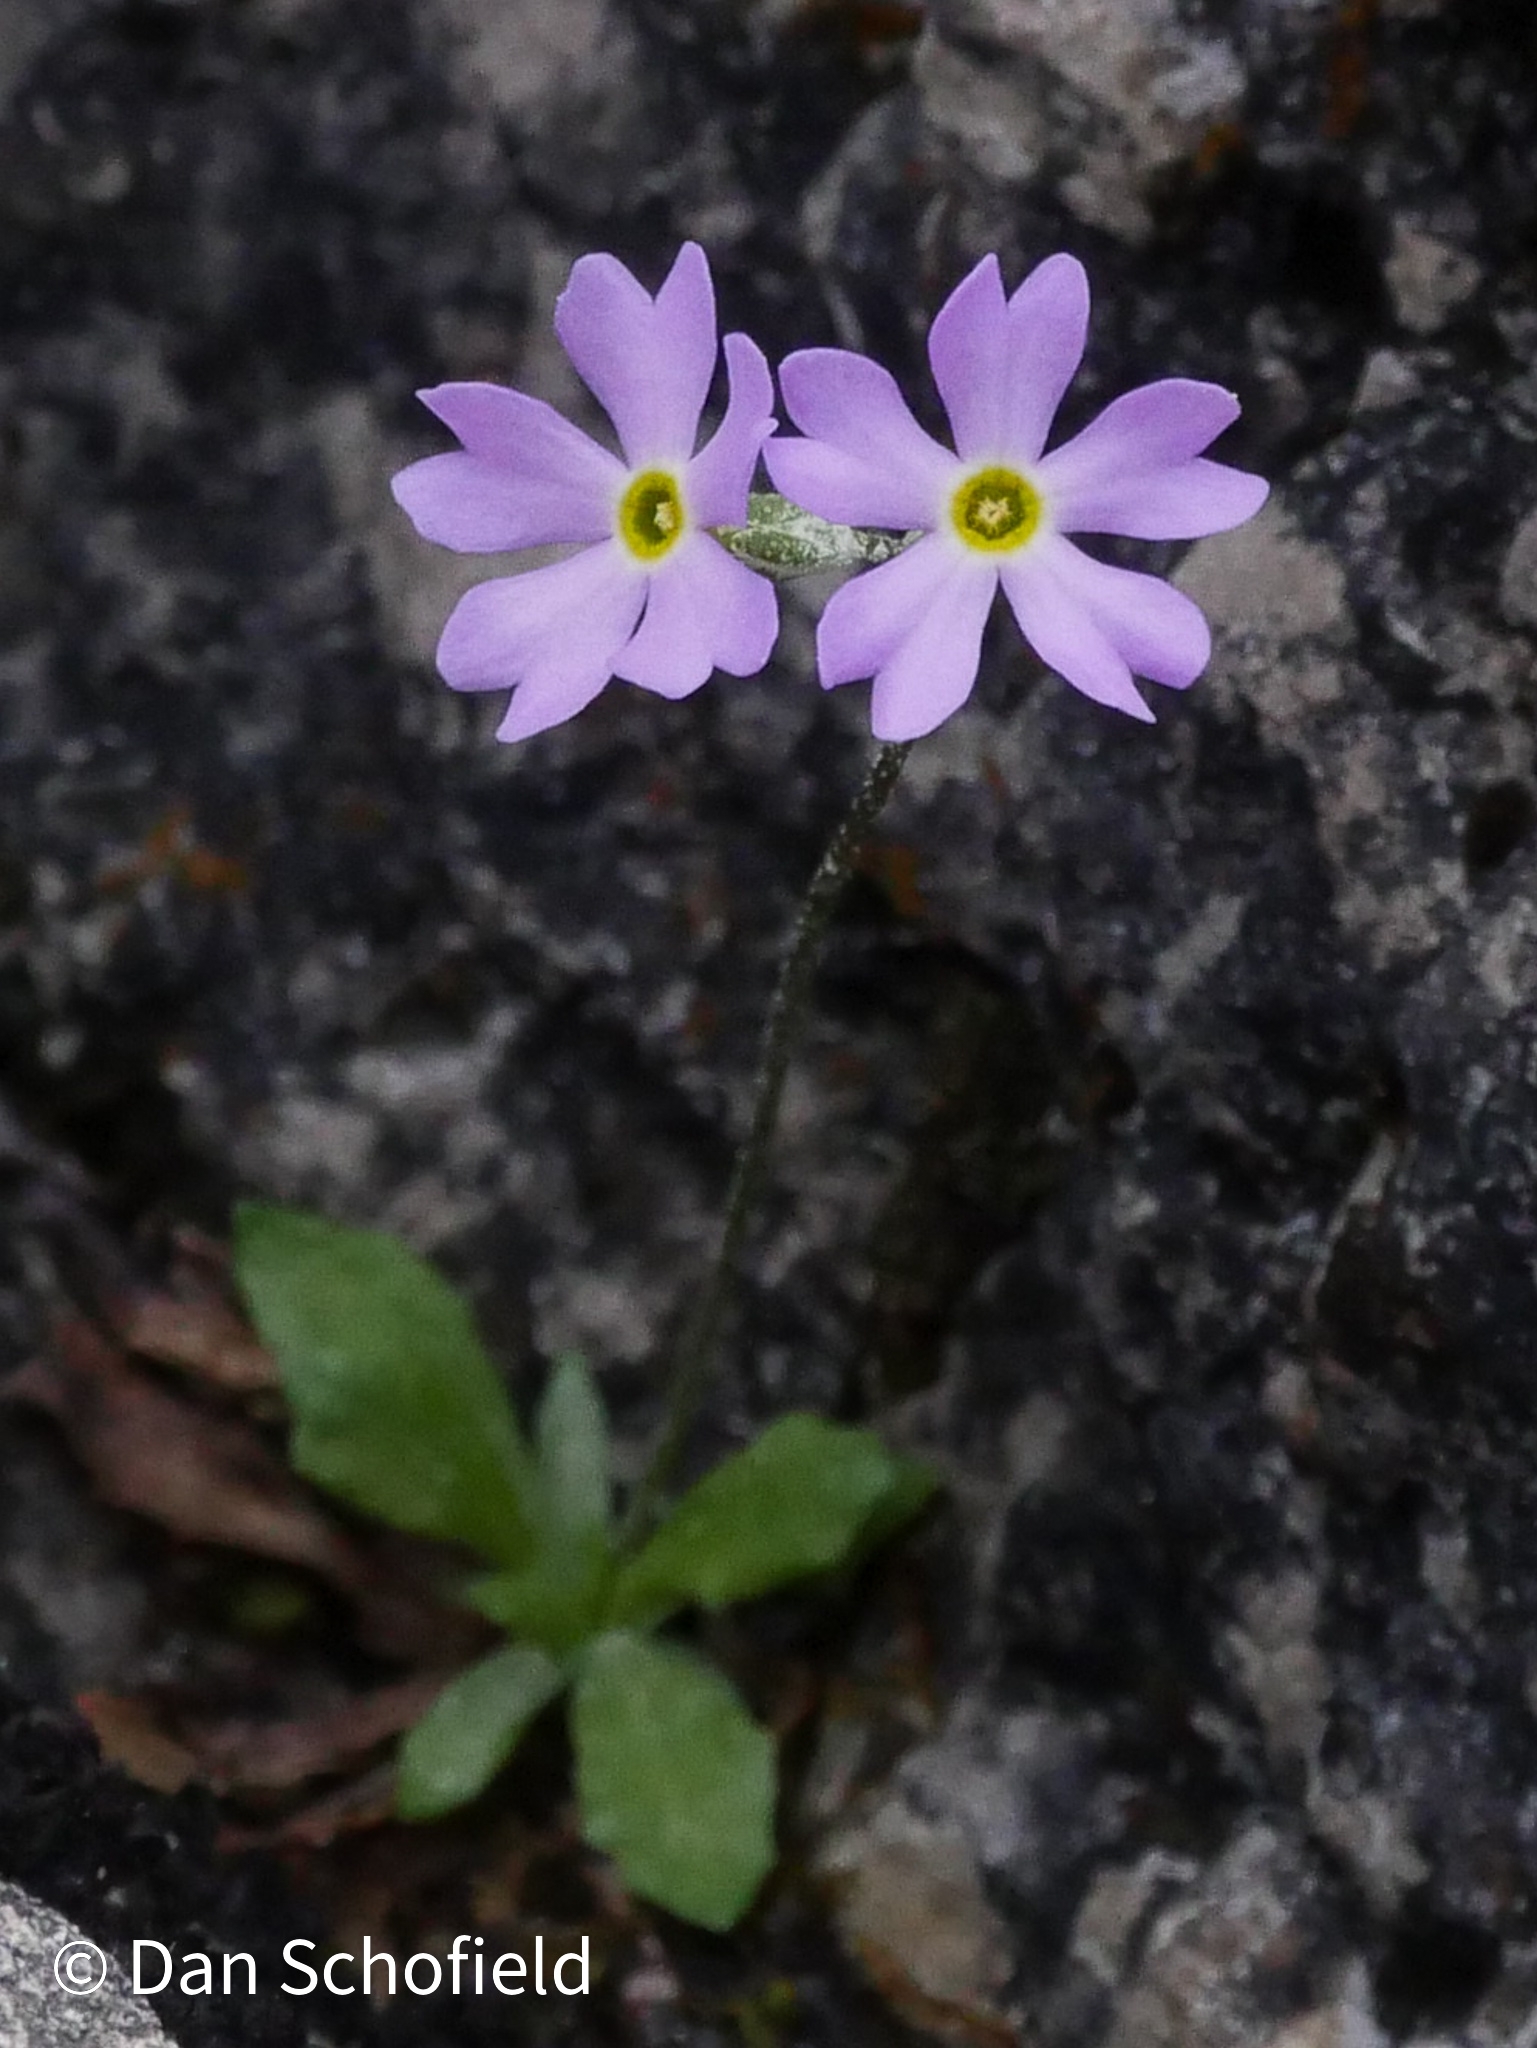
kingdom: Plantae
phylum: Tracheophyta
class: Magnoliopsida
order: Ericales
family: Primulaceae
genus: Primula
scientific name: Primula mistassinica
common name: Bird's-eye primrose
